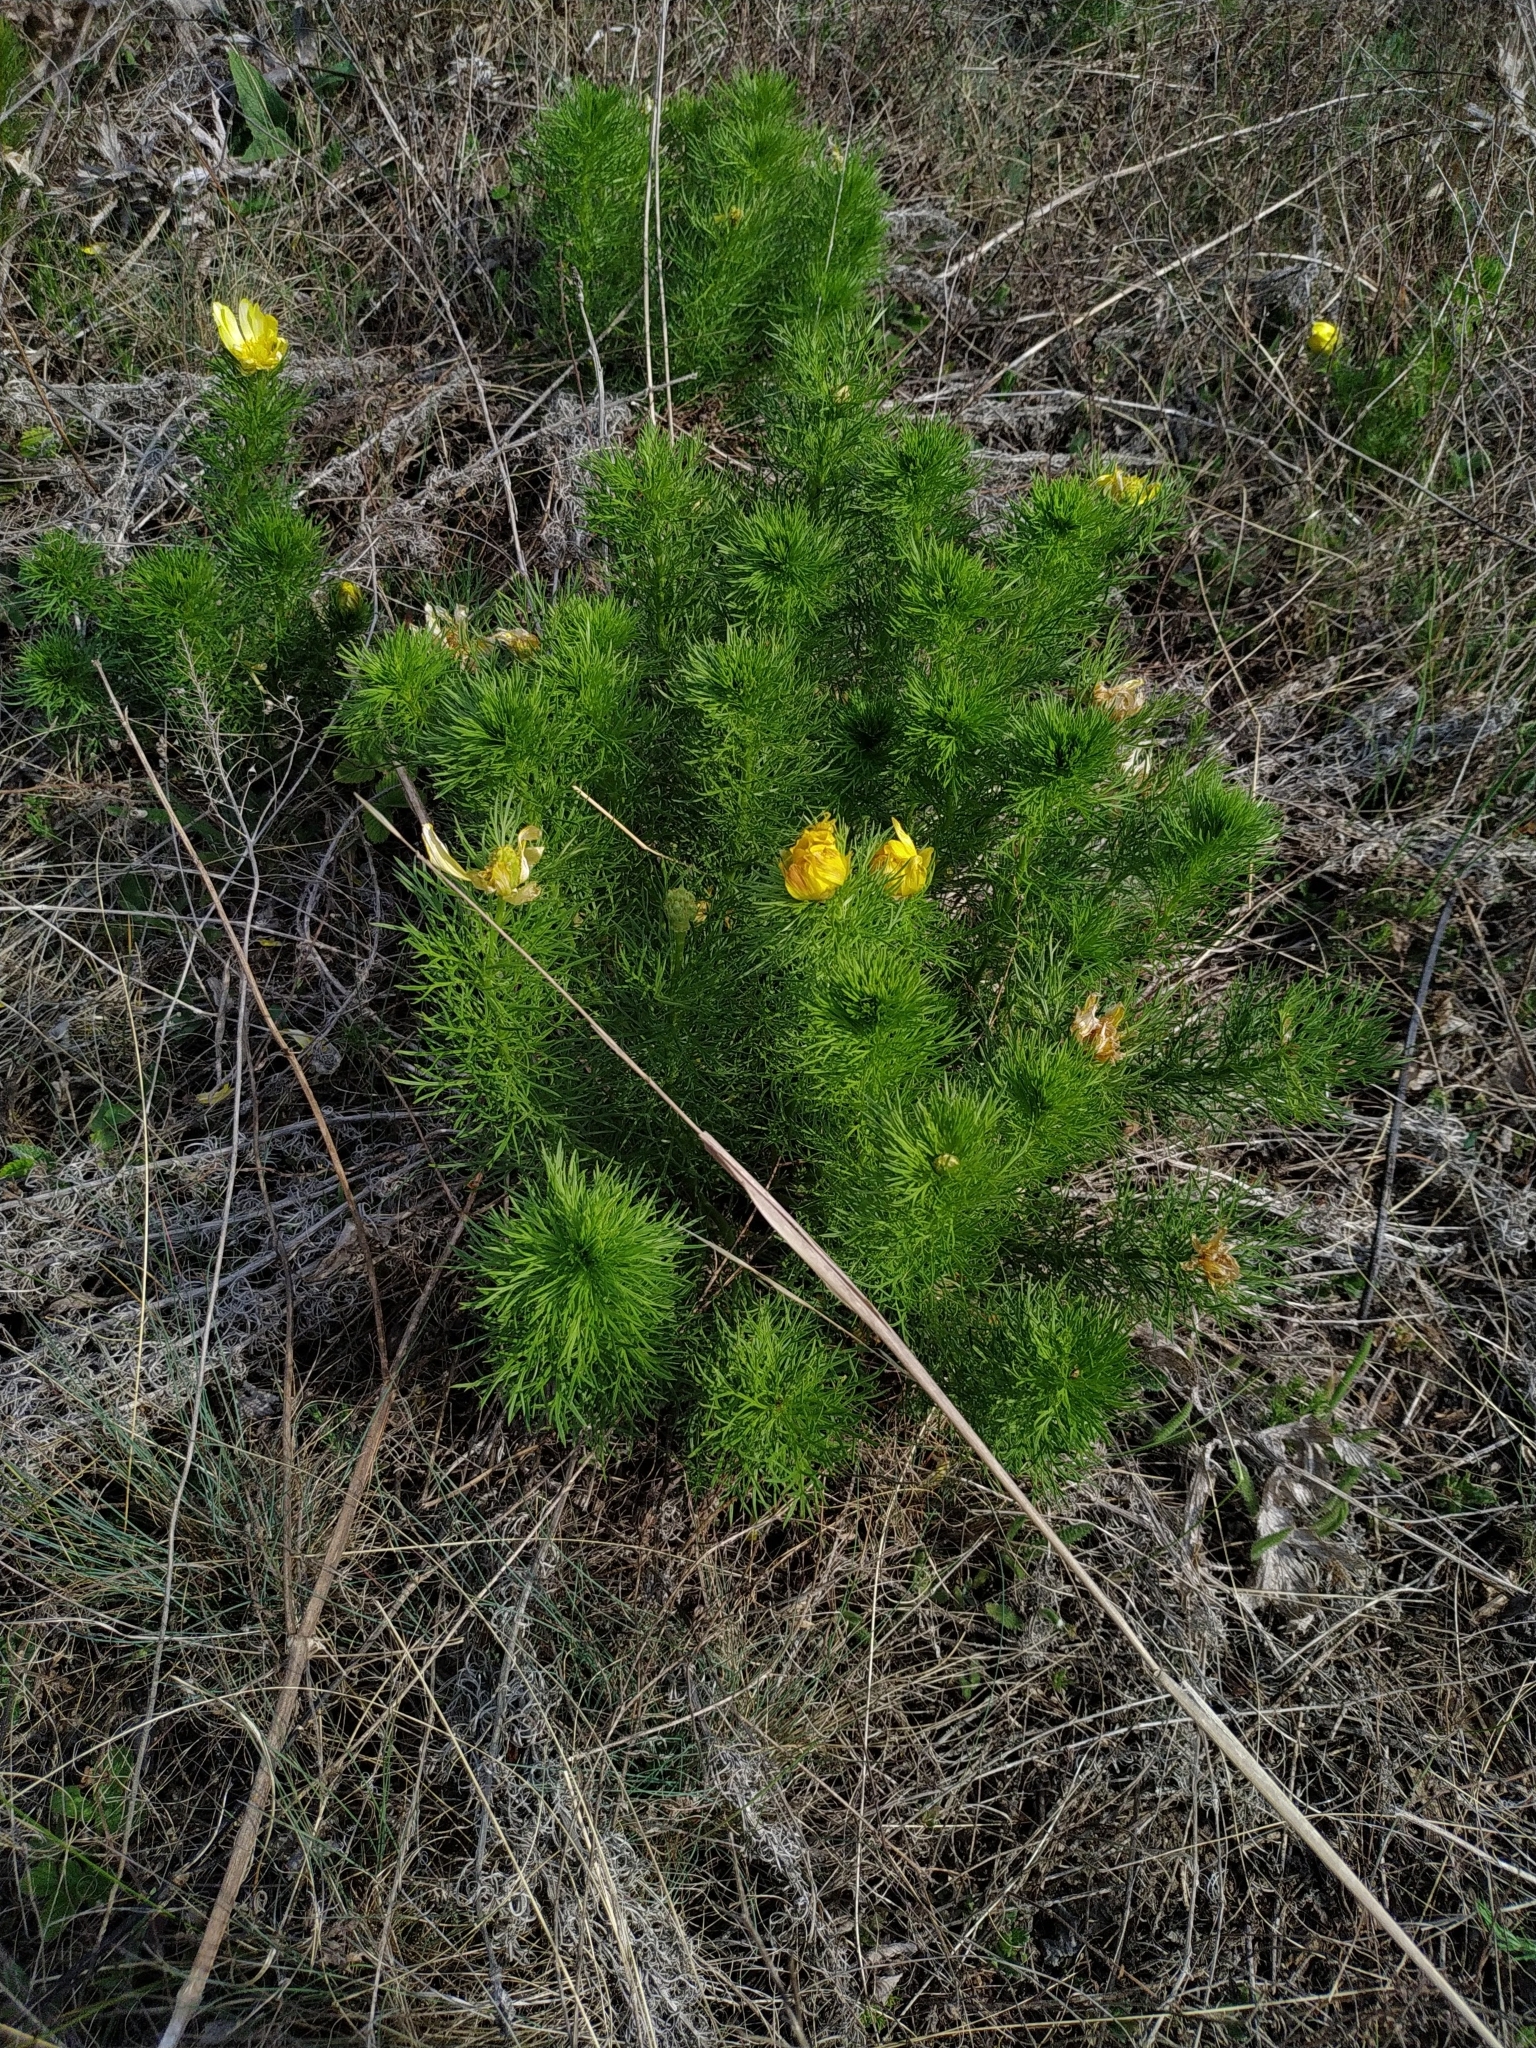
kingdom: Plantae
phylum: Tracheophyta
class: Magnoliopsida
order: Ranunculales
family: Ranunculaceae
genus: Adonis
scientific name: Adonis vernalis
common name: Yellow pheasants-eye
